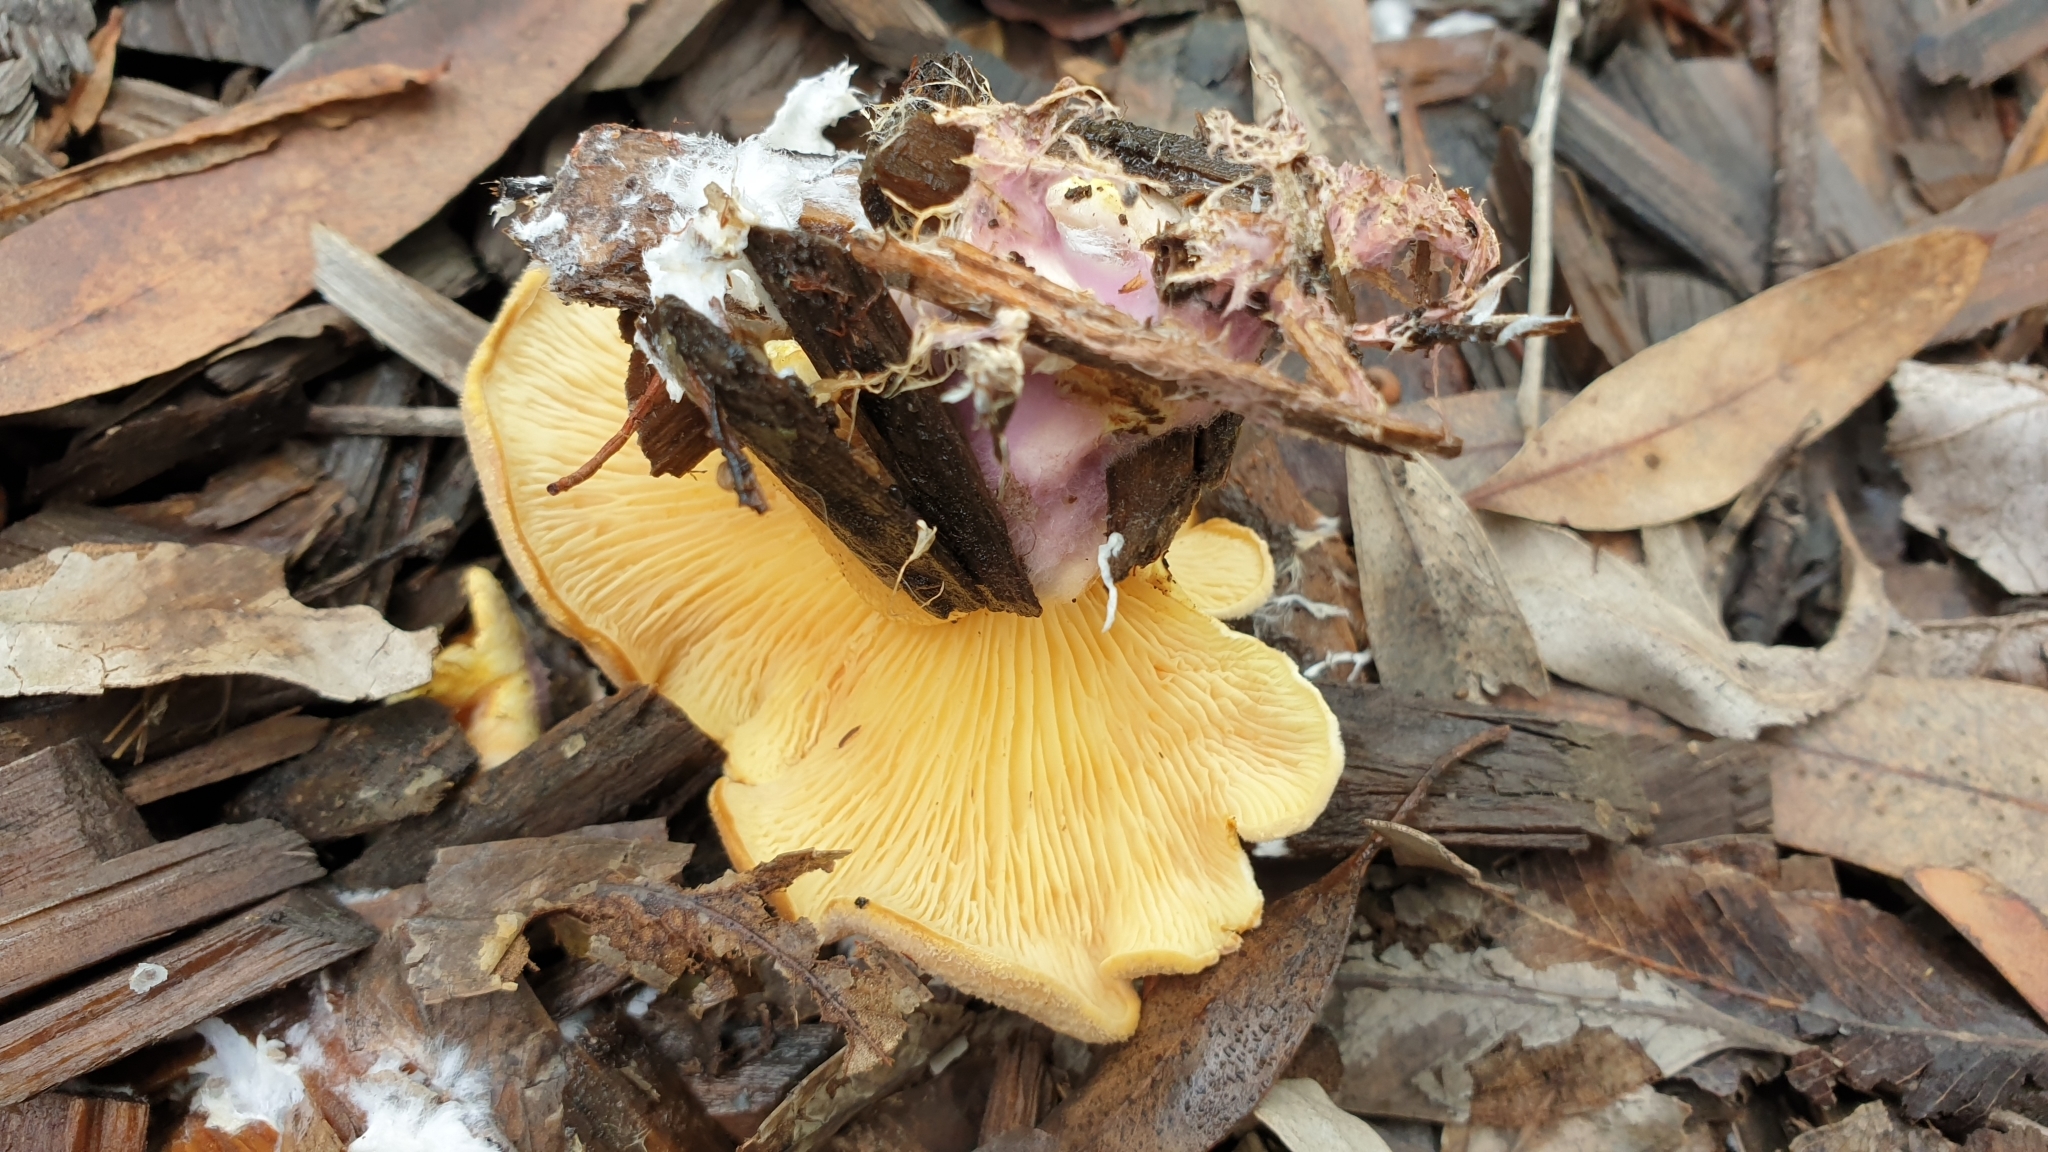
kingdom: Fungi
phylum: Basidiomycota
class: Agaricomycetes
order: Boletales
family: Tapinellaceae
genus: Tapinella
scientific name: Tapinella panuoides
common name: Oyster rollrim
